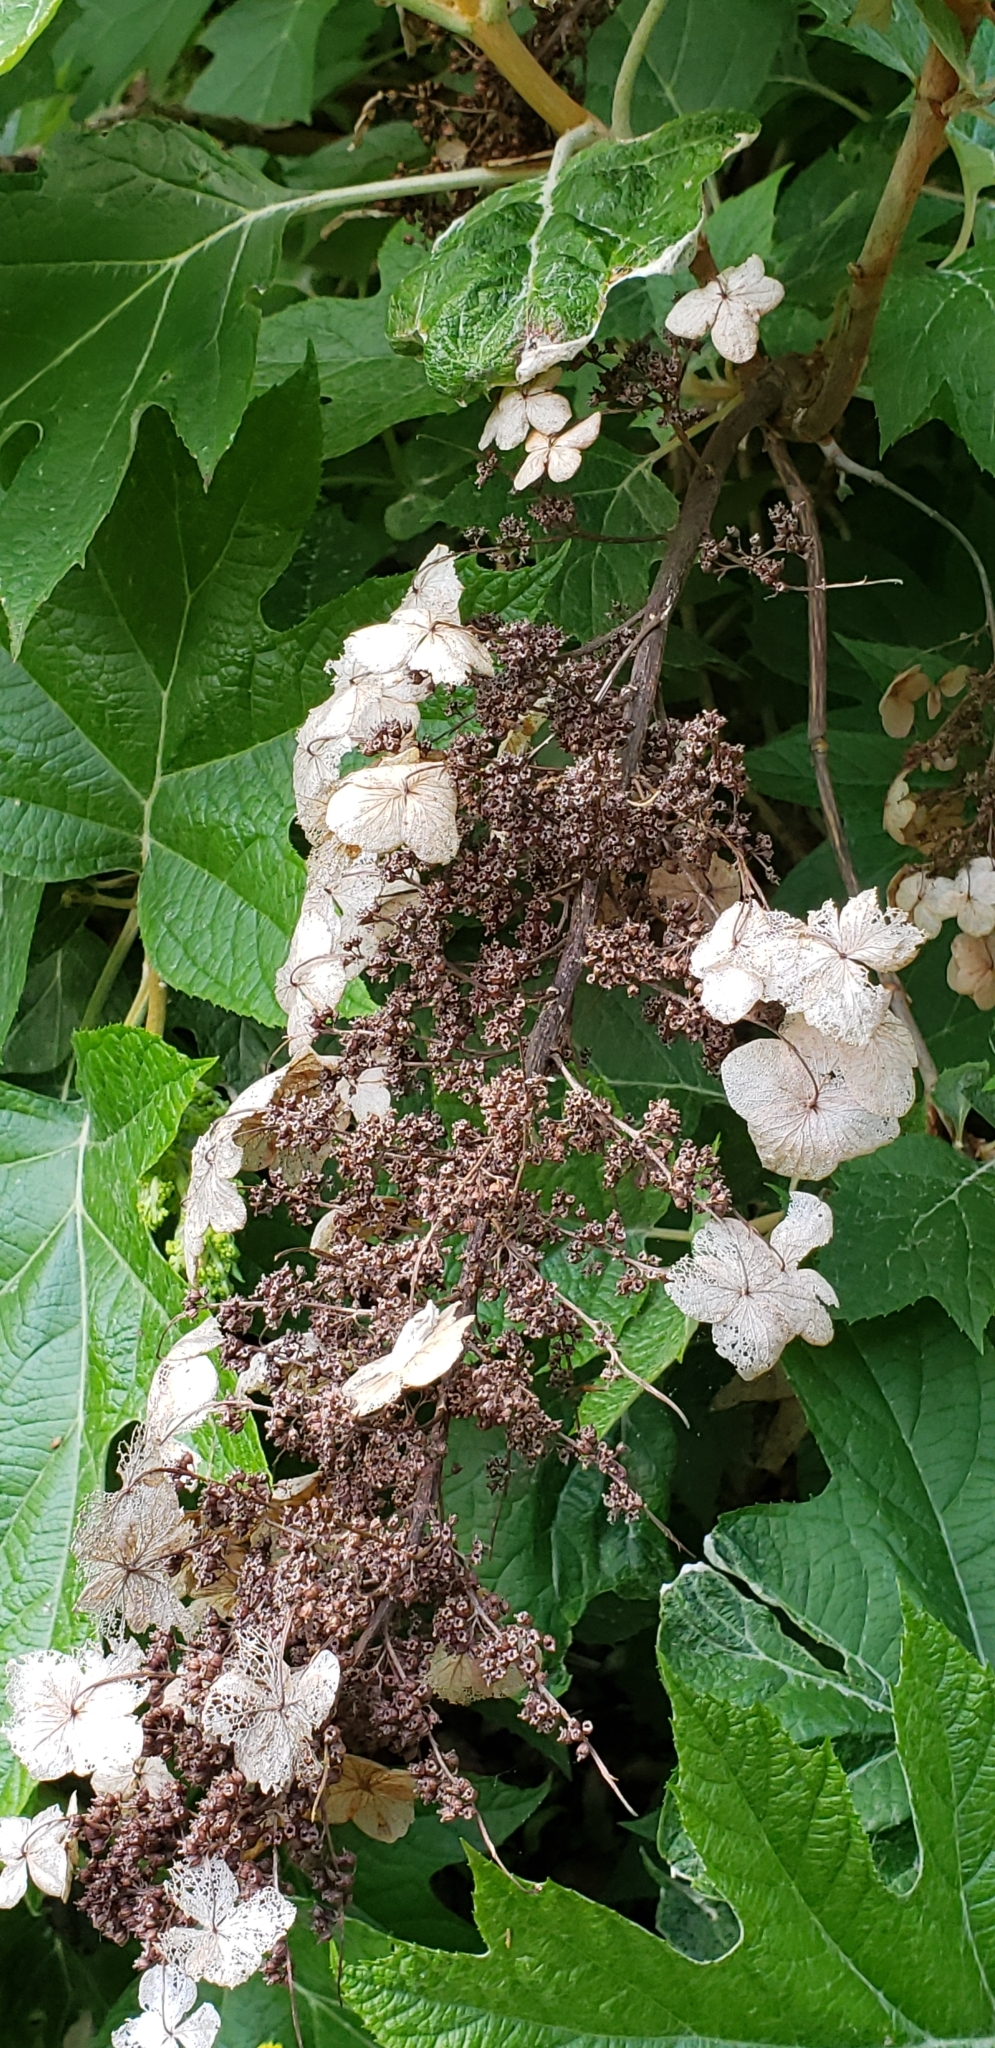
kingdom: Plantae
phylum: Tracheophyta
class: Magnoliopsida
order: Cornales
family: Hydrangeaceae
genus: Hydrangea
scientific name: Hydrangea quercifolia
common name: Oak-leaf hydrangea
